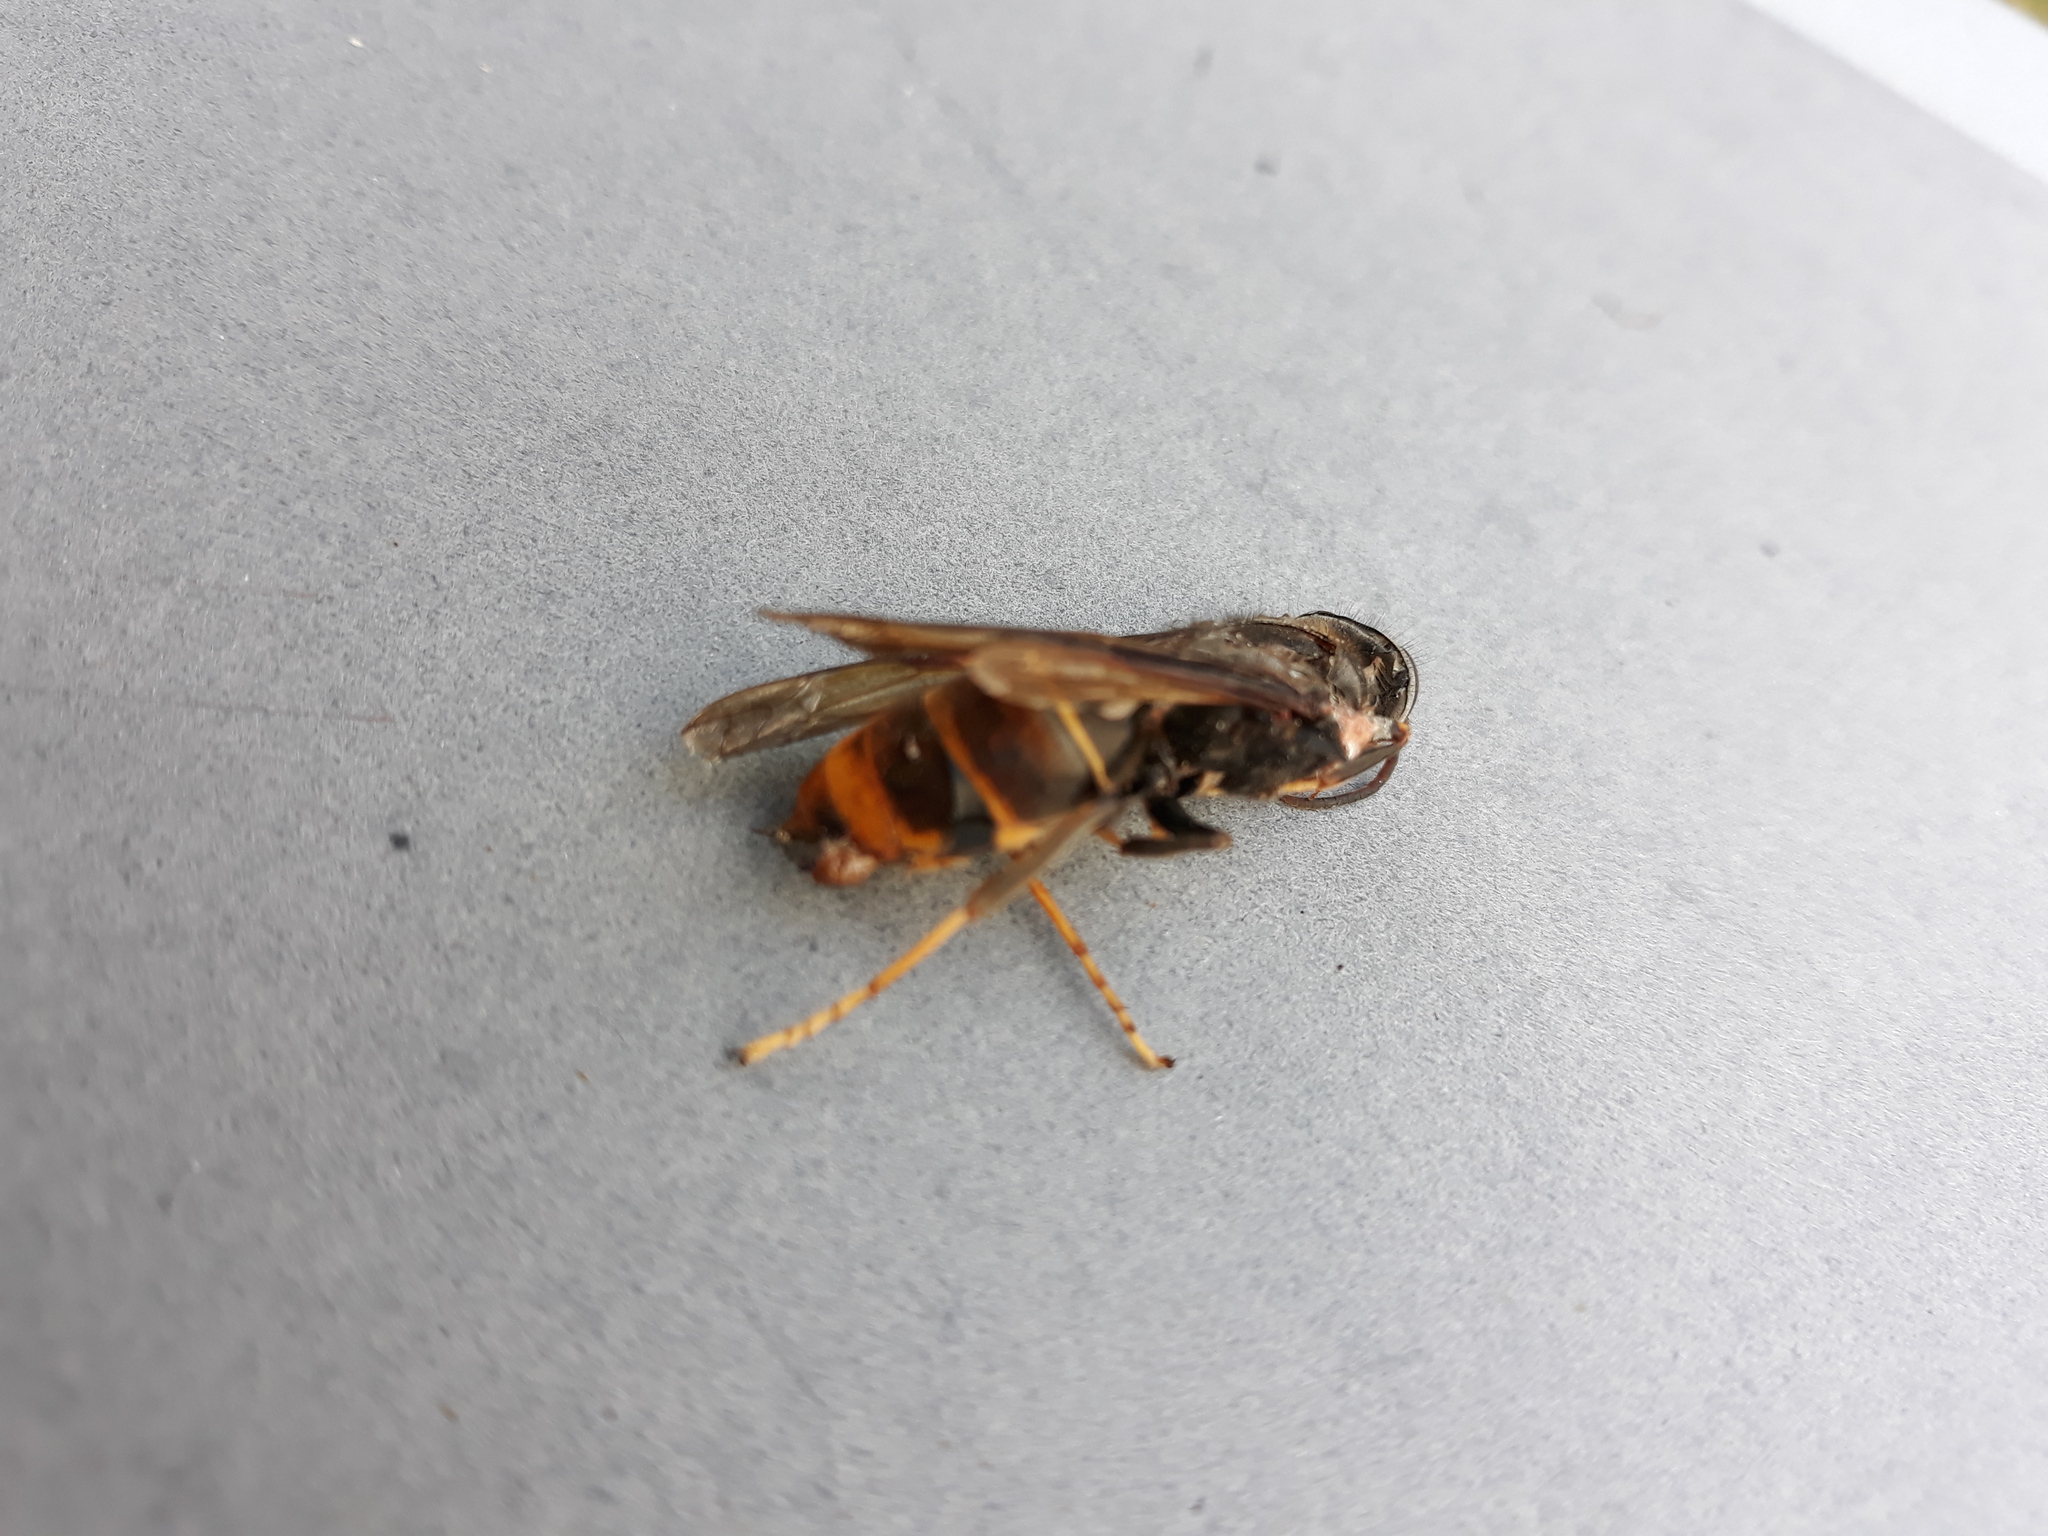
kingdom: Animalia
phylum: Arthropoda
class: Insecta
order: Hymenoptera
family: Vespidae
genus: Vespa
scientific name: Vespa velutina
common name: Asian hornet
